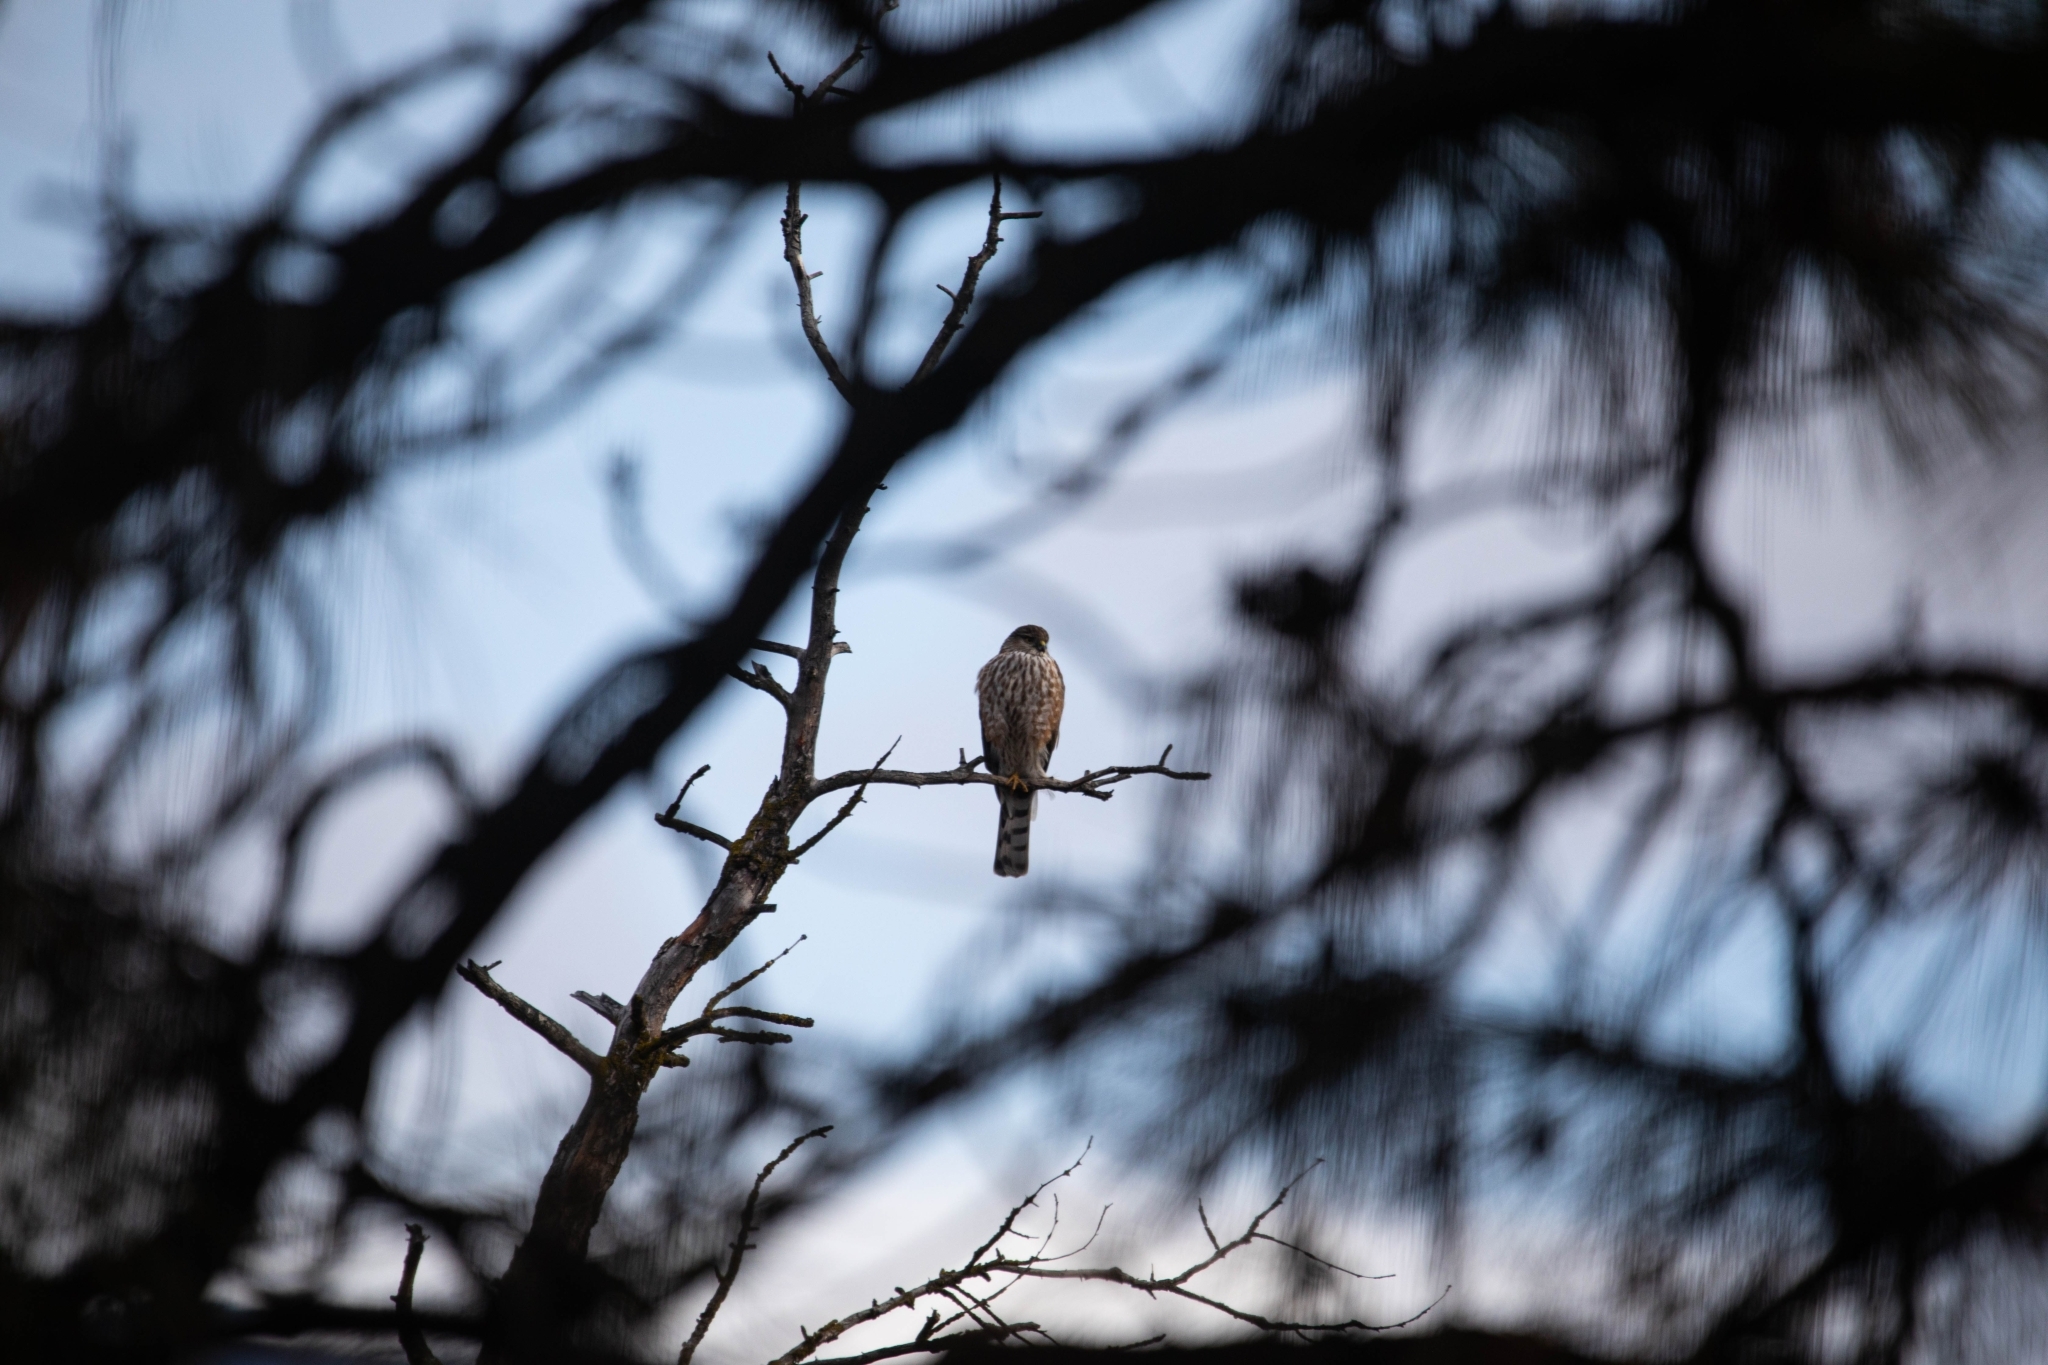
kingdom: Animalia
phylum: Chordata
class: Aves
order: Accipitriformes
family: Accipitridae
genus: Accipiter
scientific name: Accipiter striatus
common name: Sharp-shinned hawk
